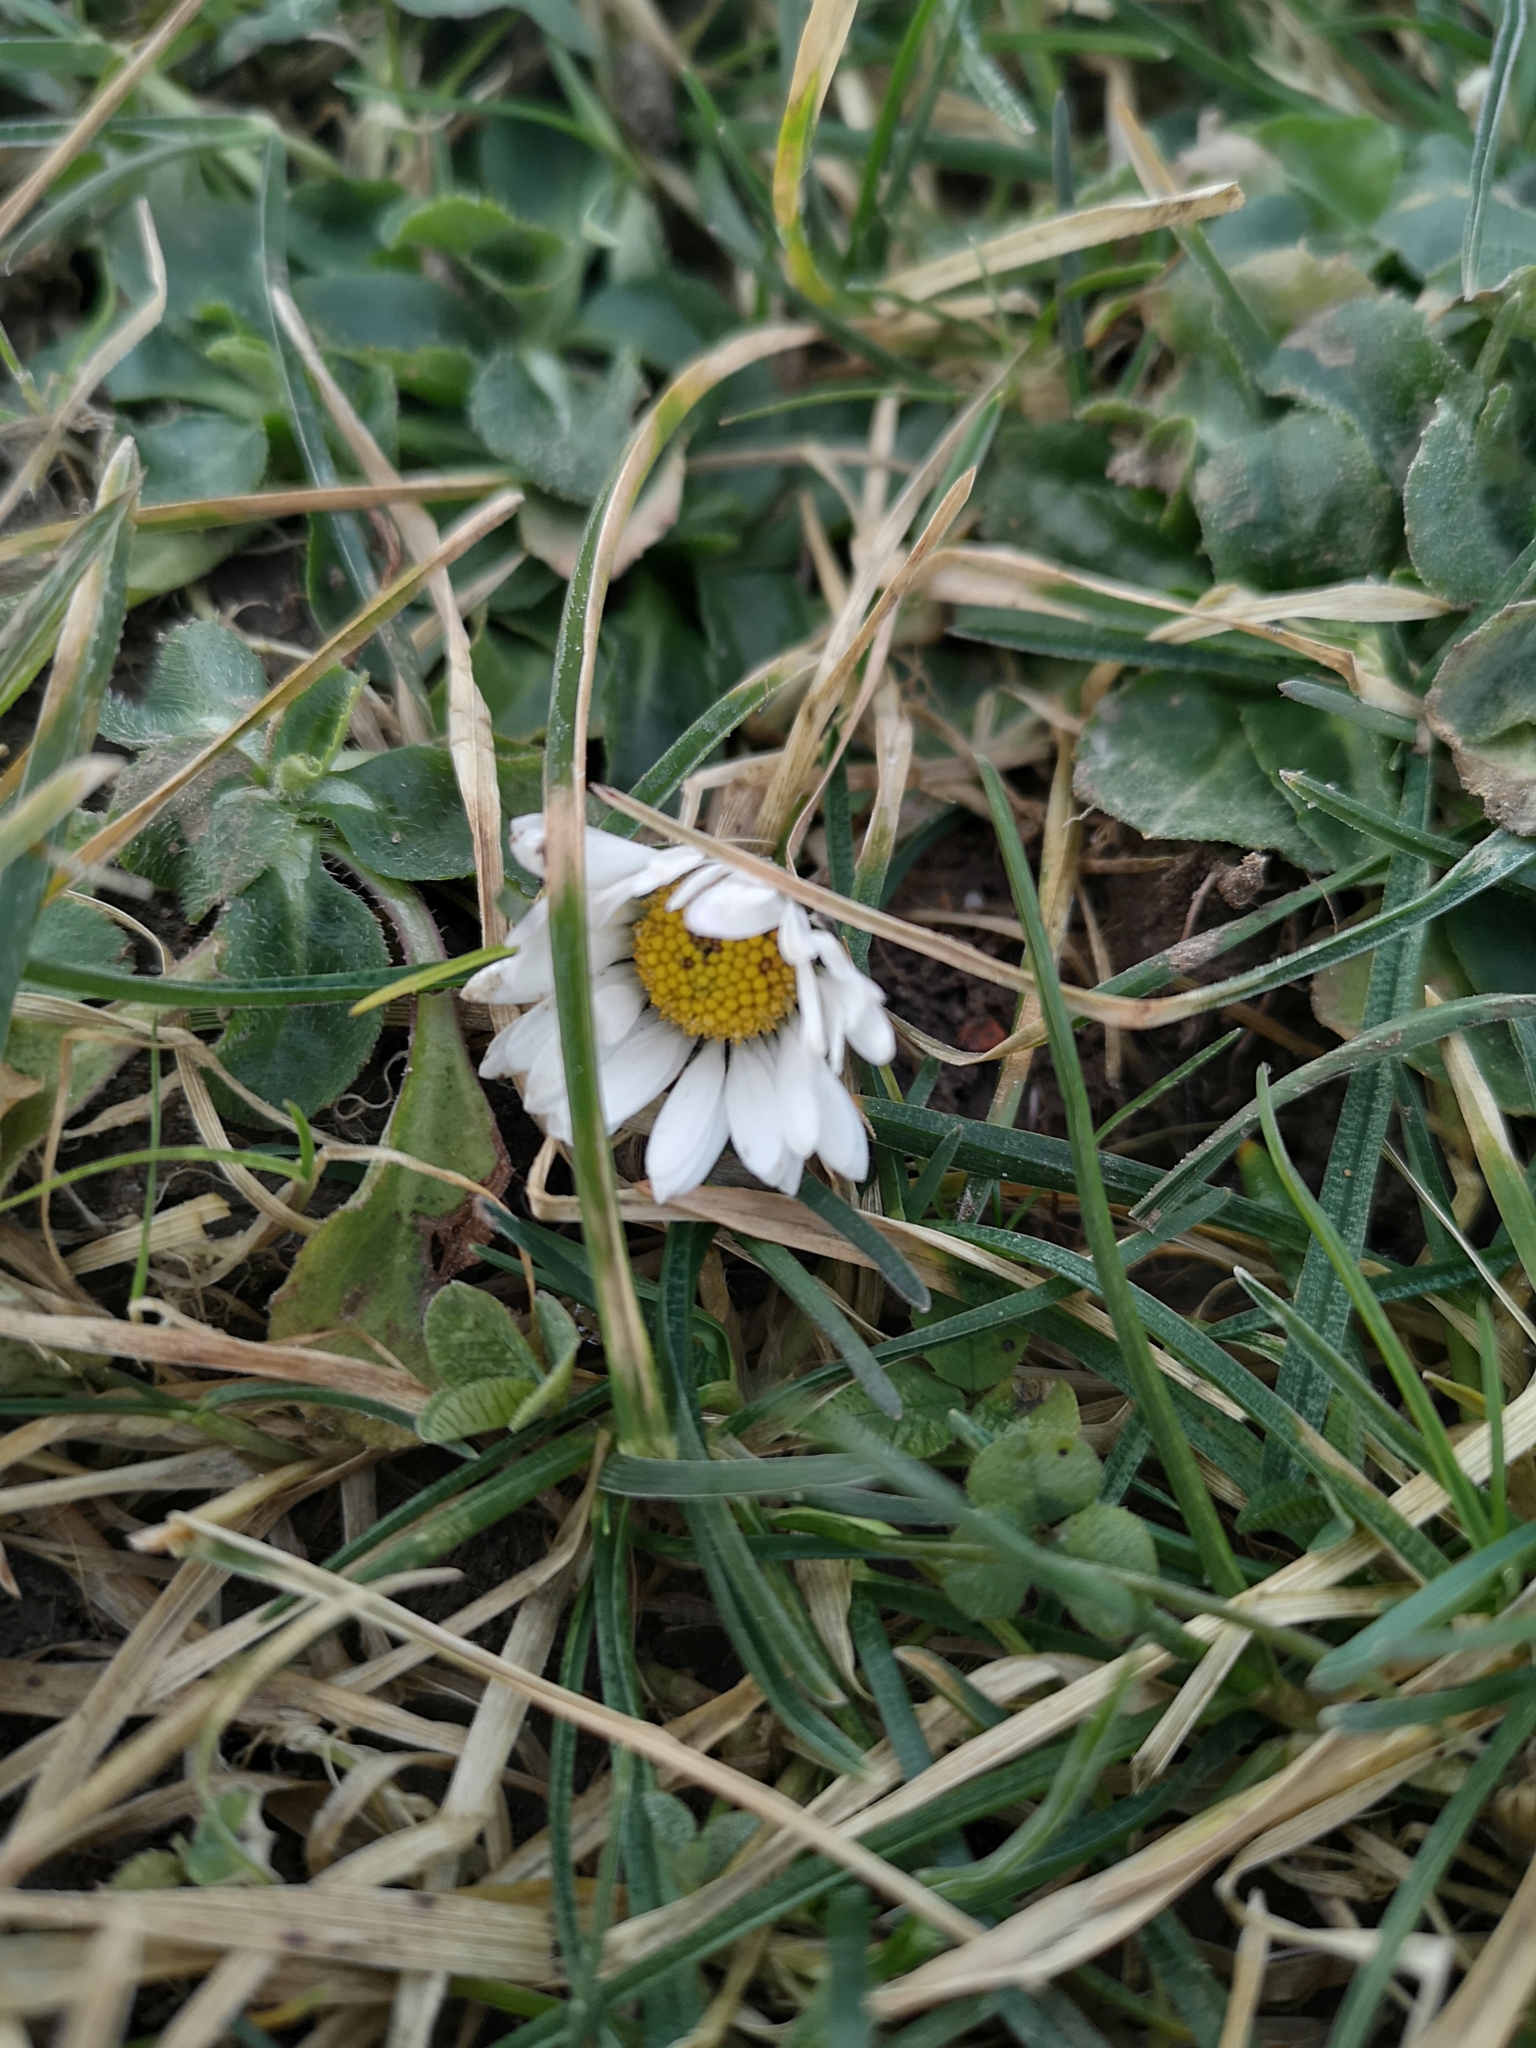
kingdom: Plantae
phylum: Tracheophyta
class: Magnoliopsida
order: Asterales
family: Asteraceae
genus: Bellis
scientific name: Bellis perennis
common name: Lawndaisy
